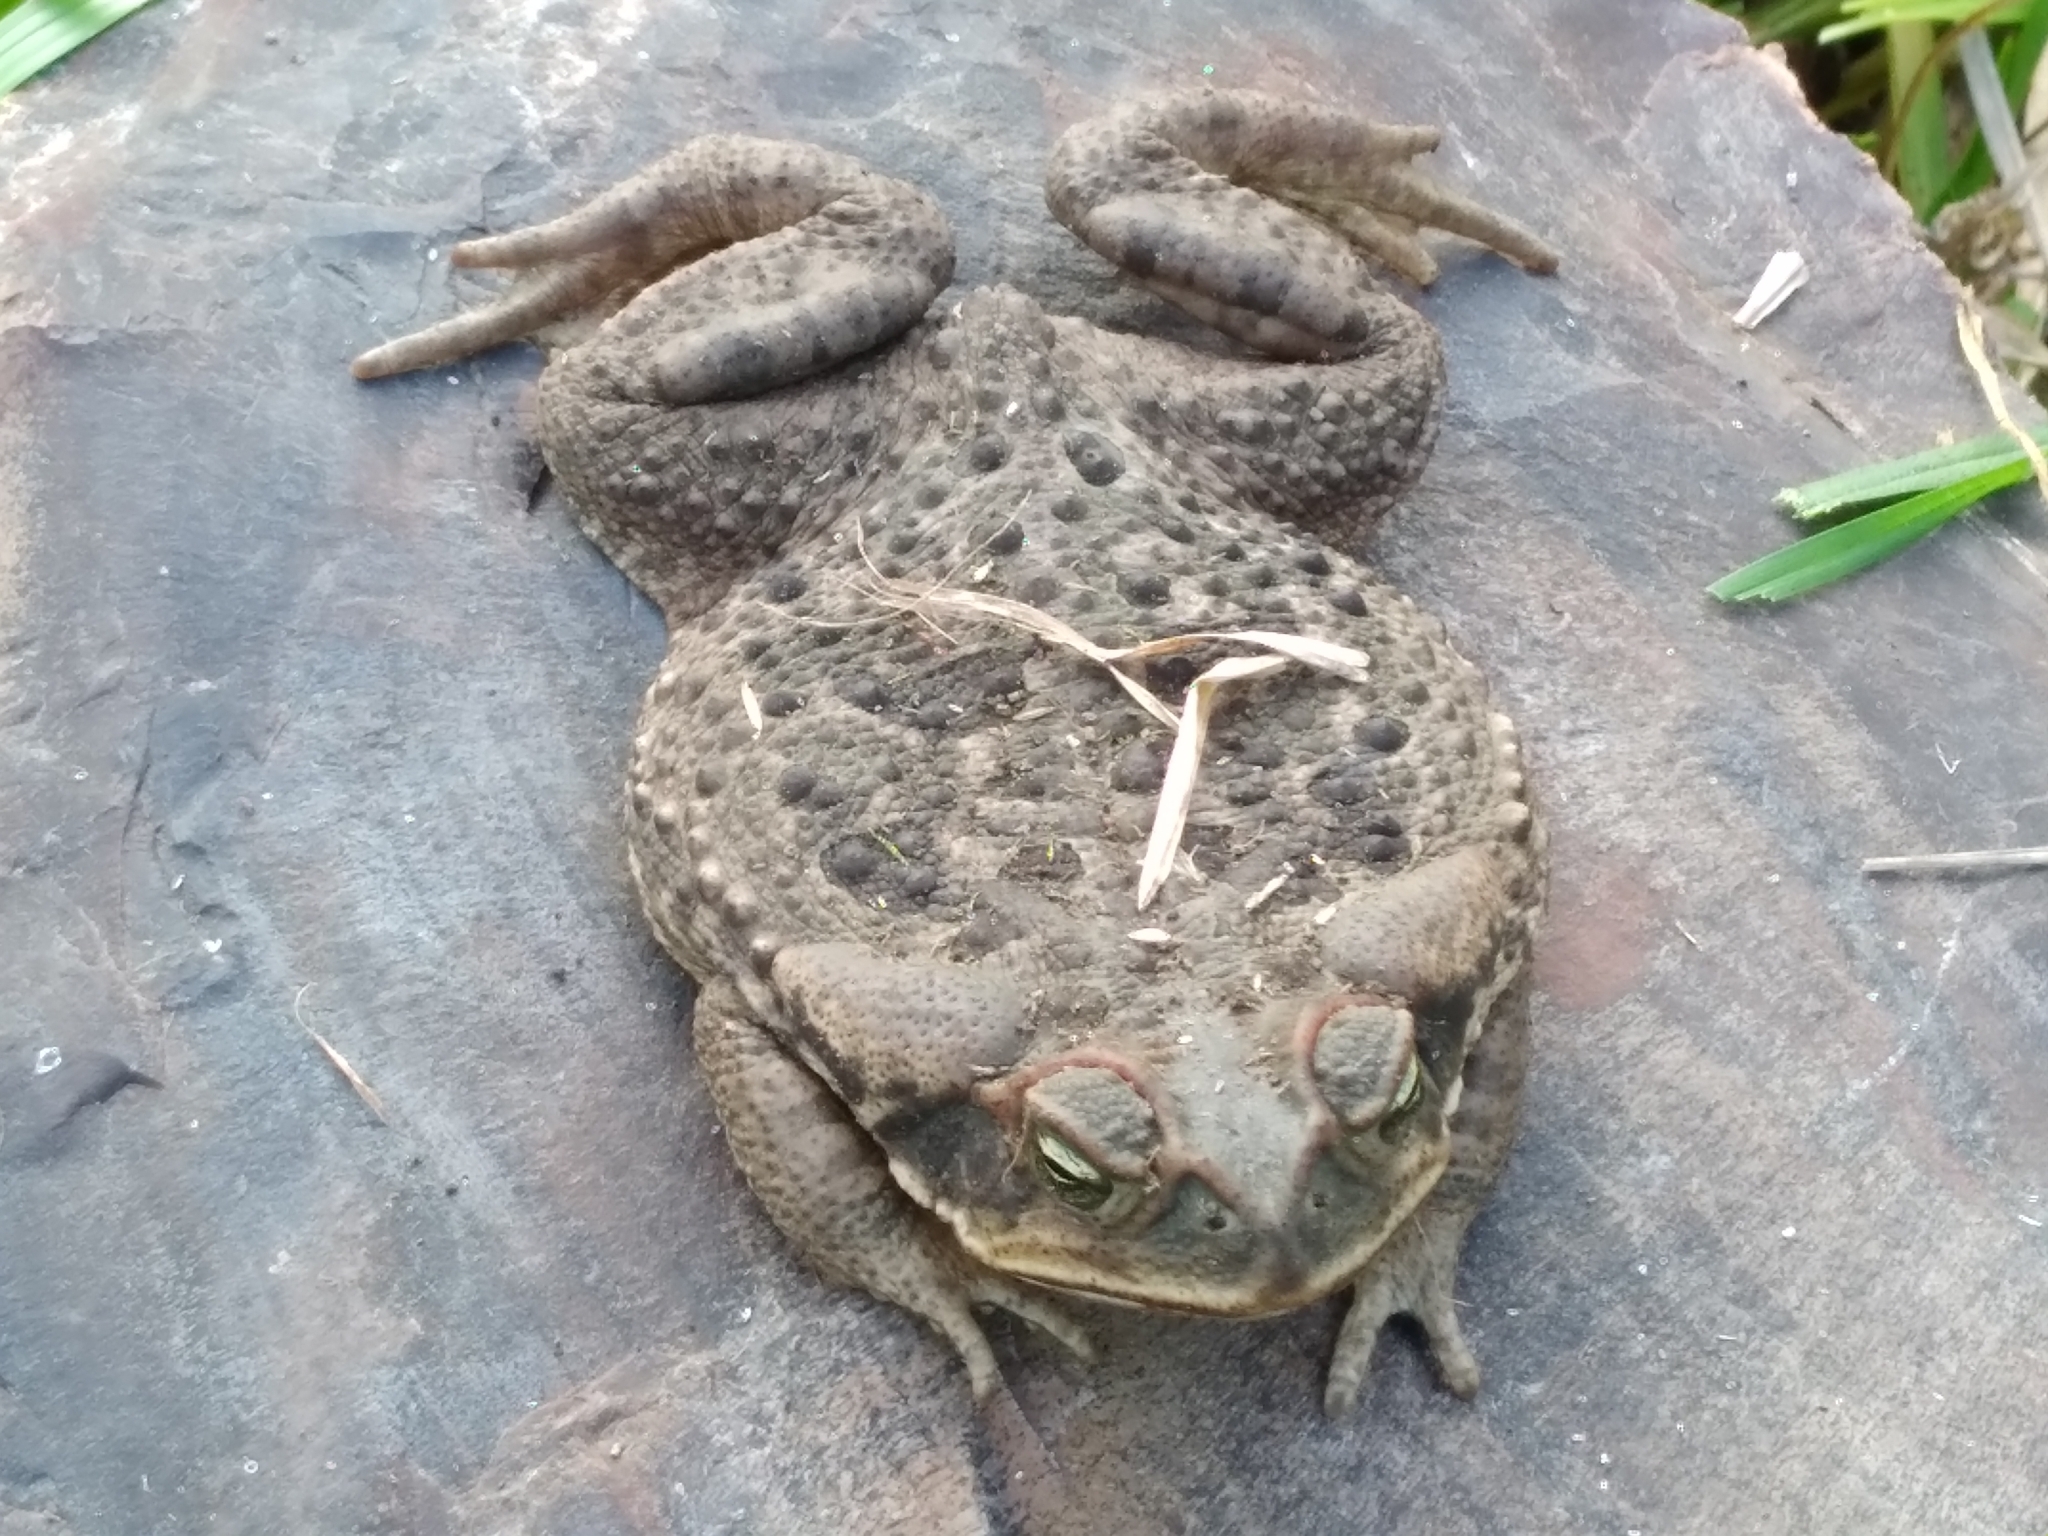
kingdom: Animalia
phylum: Chordata
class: Amphibia
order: Anura
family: Bufonidae
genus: Rhinella
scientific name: Rhinella diptycha
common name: Cope's toad
